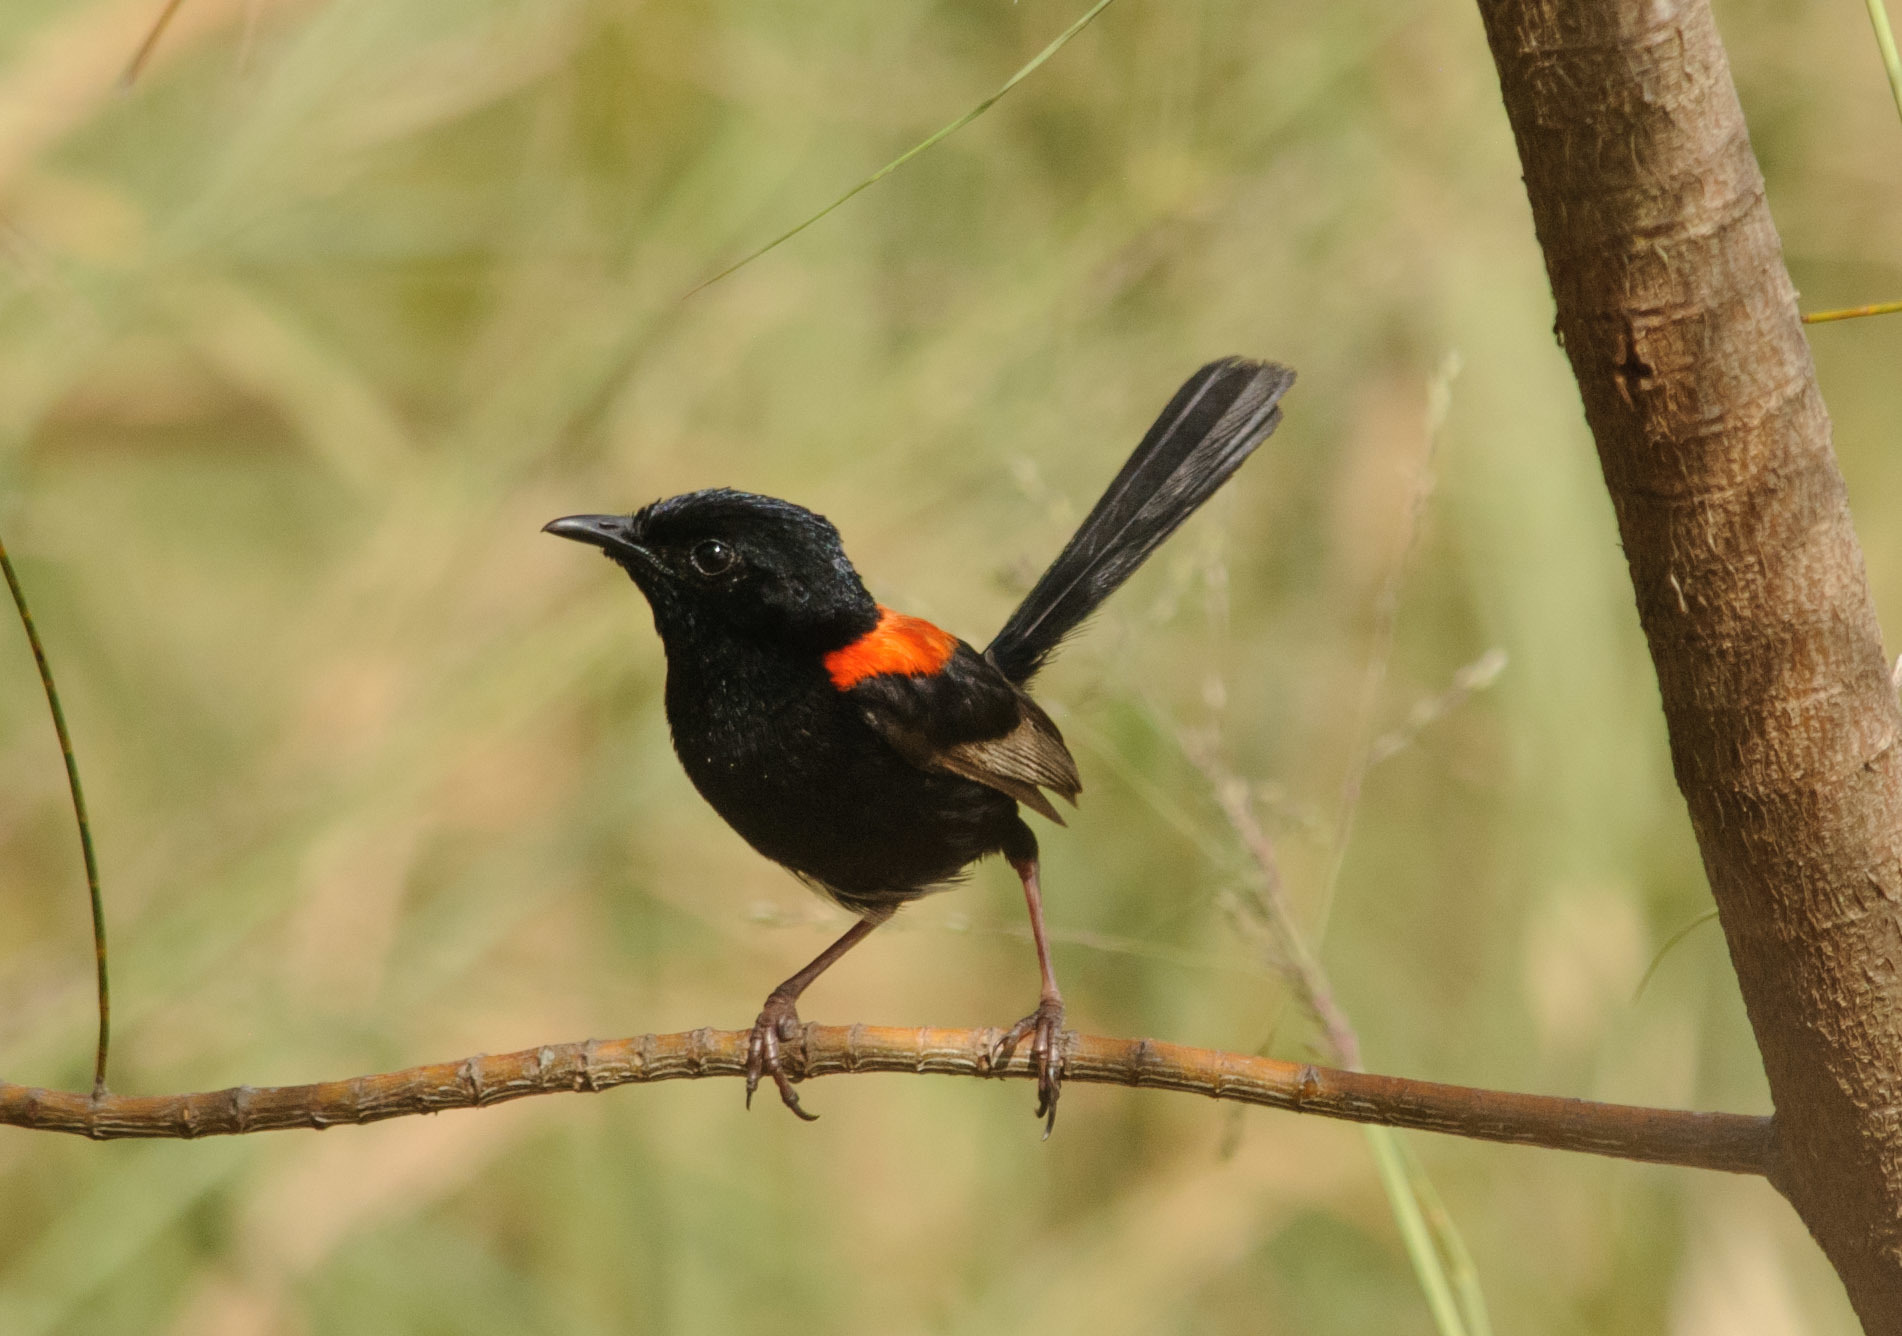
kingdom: Animalia
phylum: Chordata
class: Aves
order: Passeriformes
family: Maluridae
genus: Malurus
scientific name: Malurus melanocephalus
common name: Red-backed fairywren
